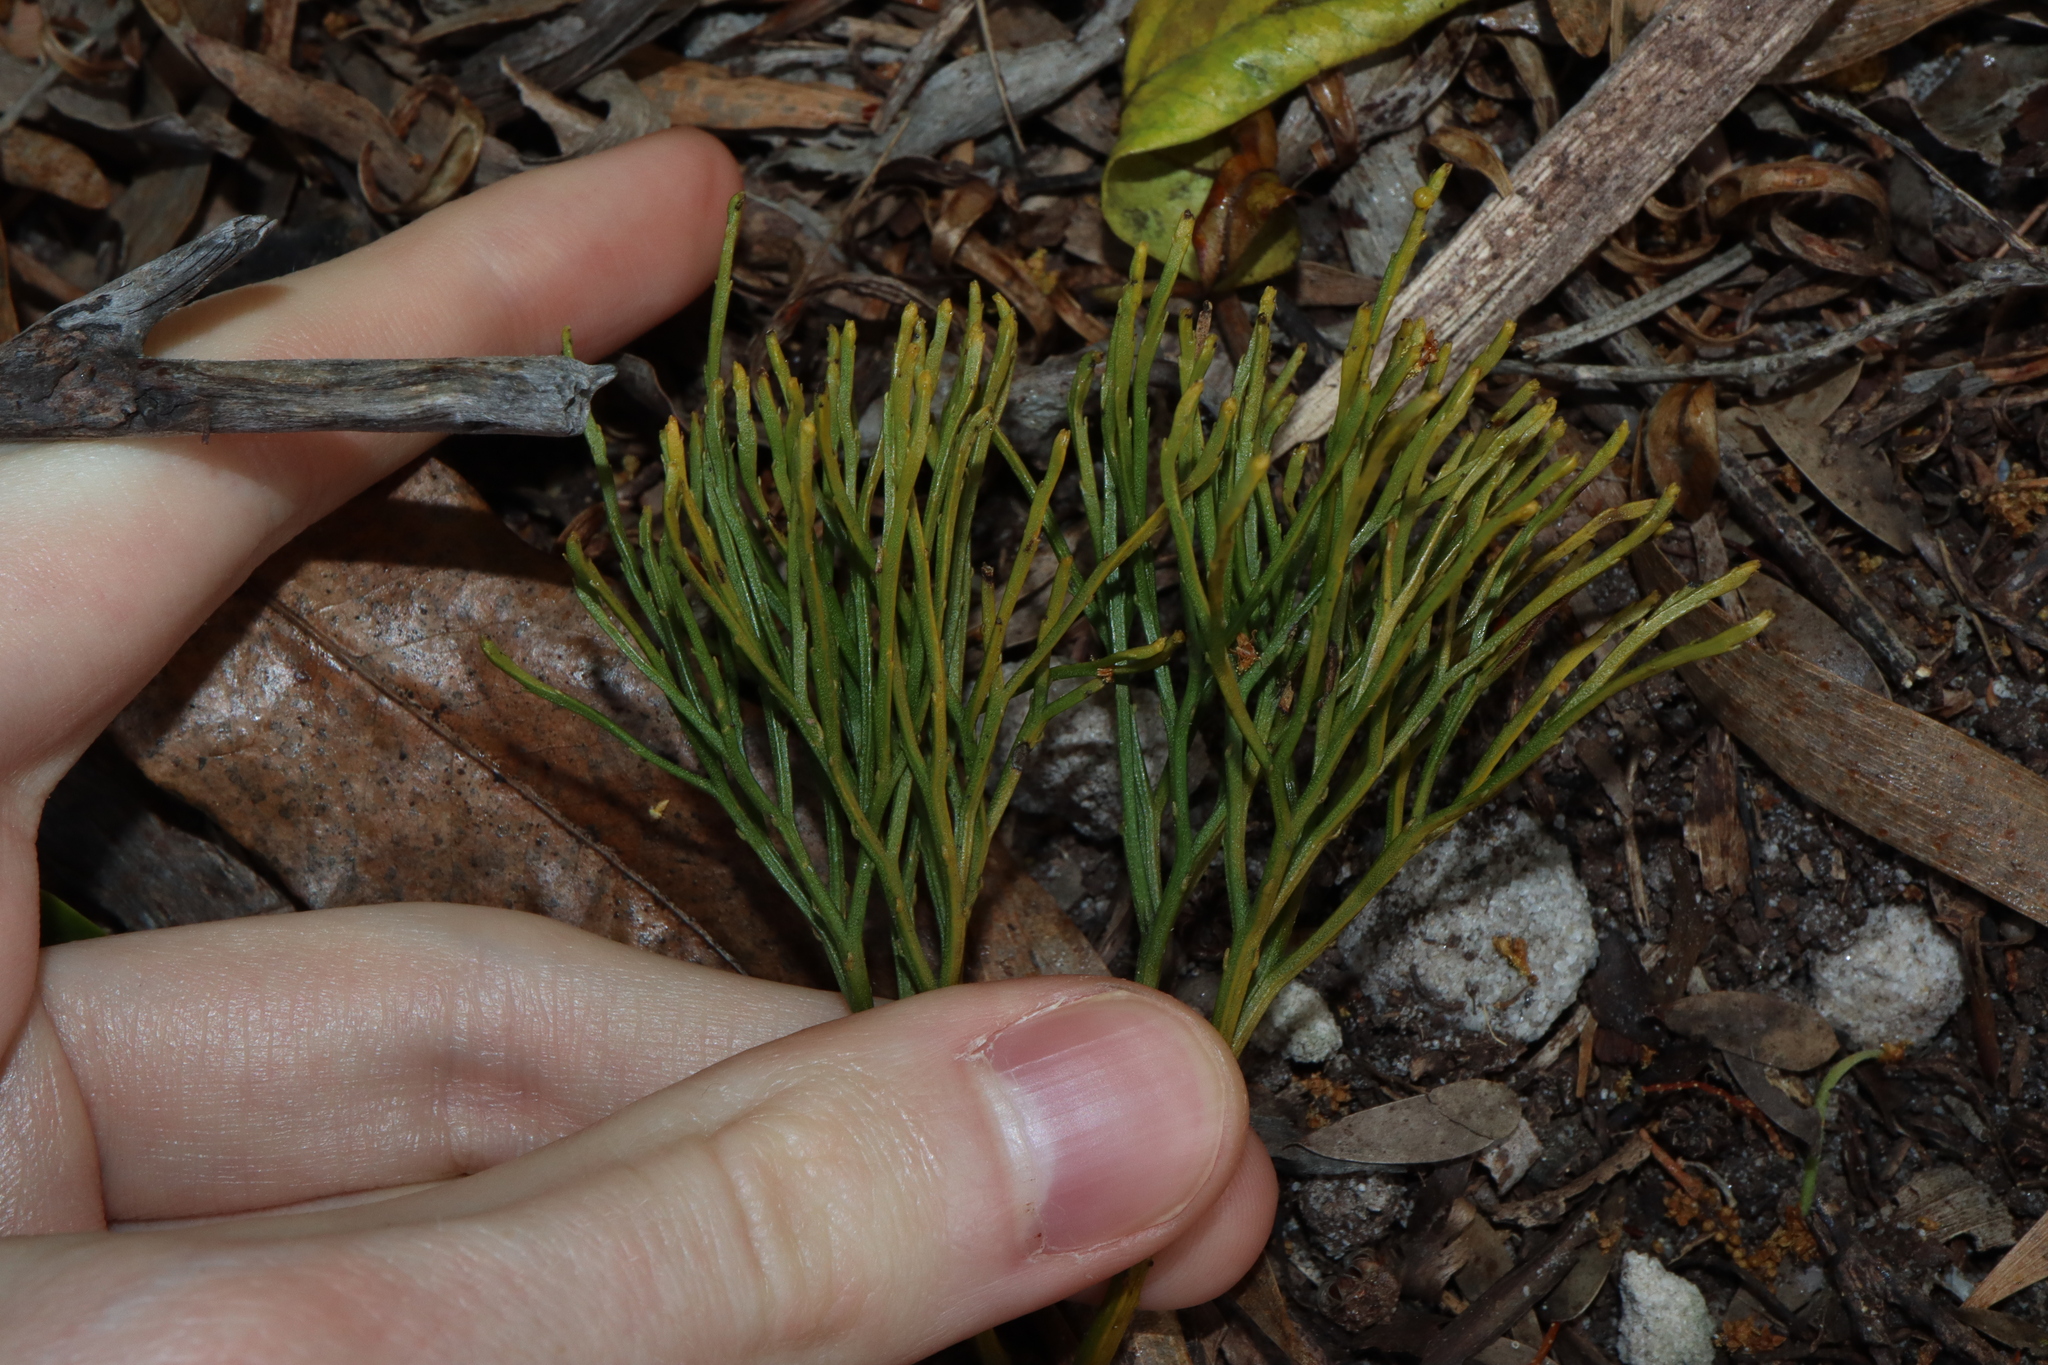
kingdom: Plantae
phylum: Tracheophyta
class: Polypodiopsida
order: Psilotales
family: Psilotaceae
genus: Psilotum
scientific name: Psilotum nudum
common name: Skeleton fork fern
